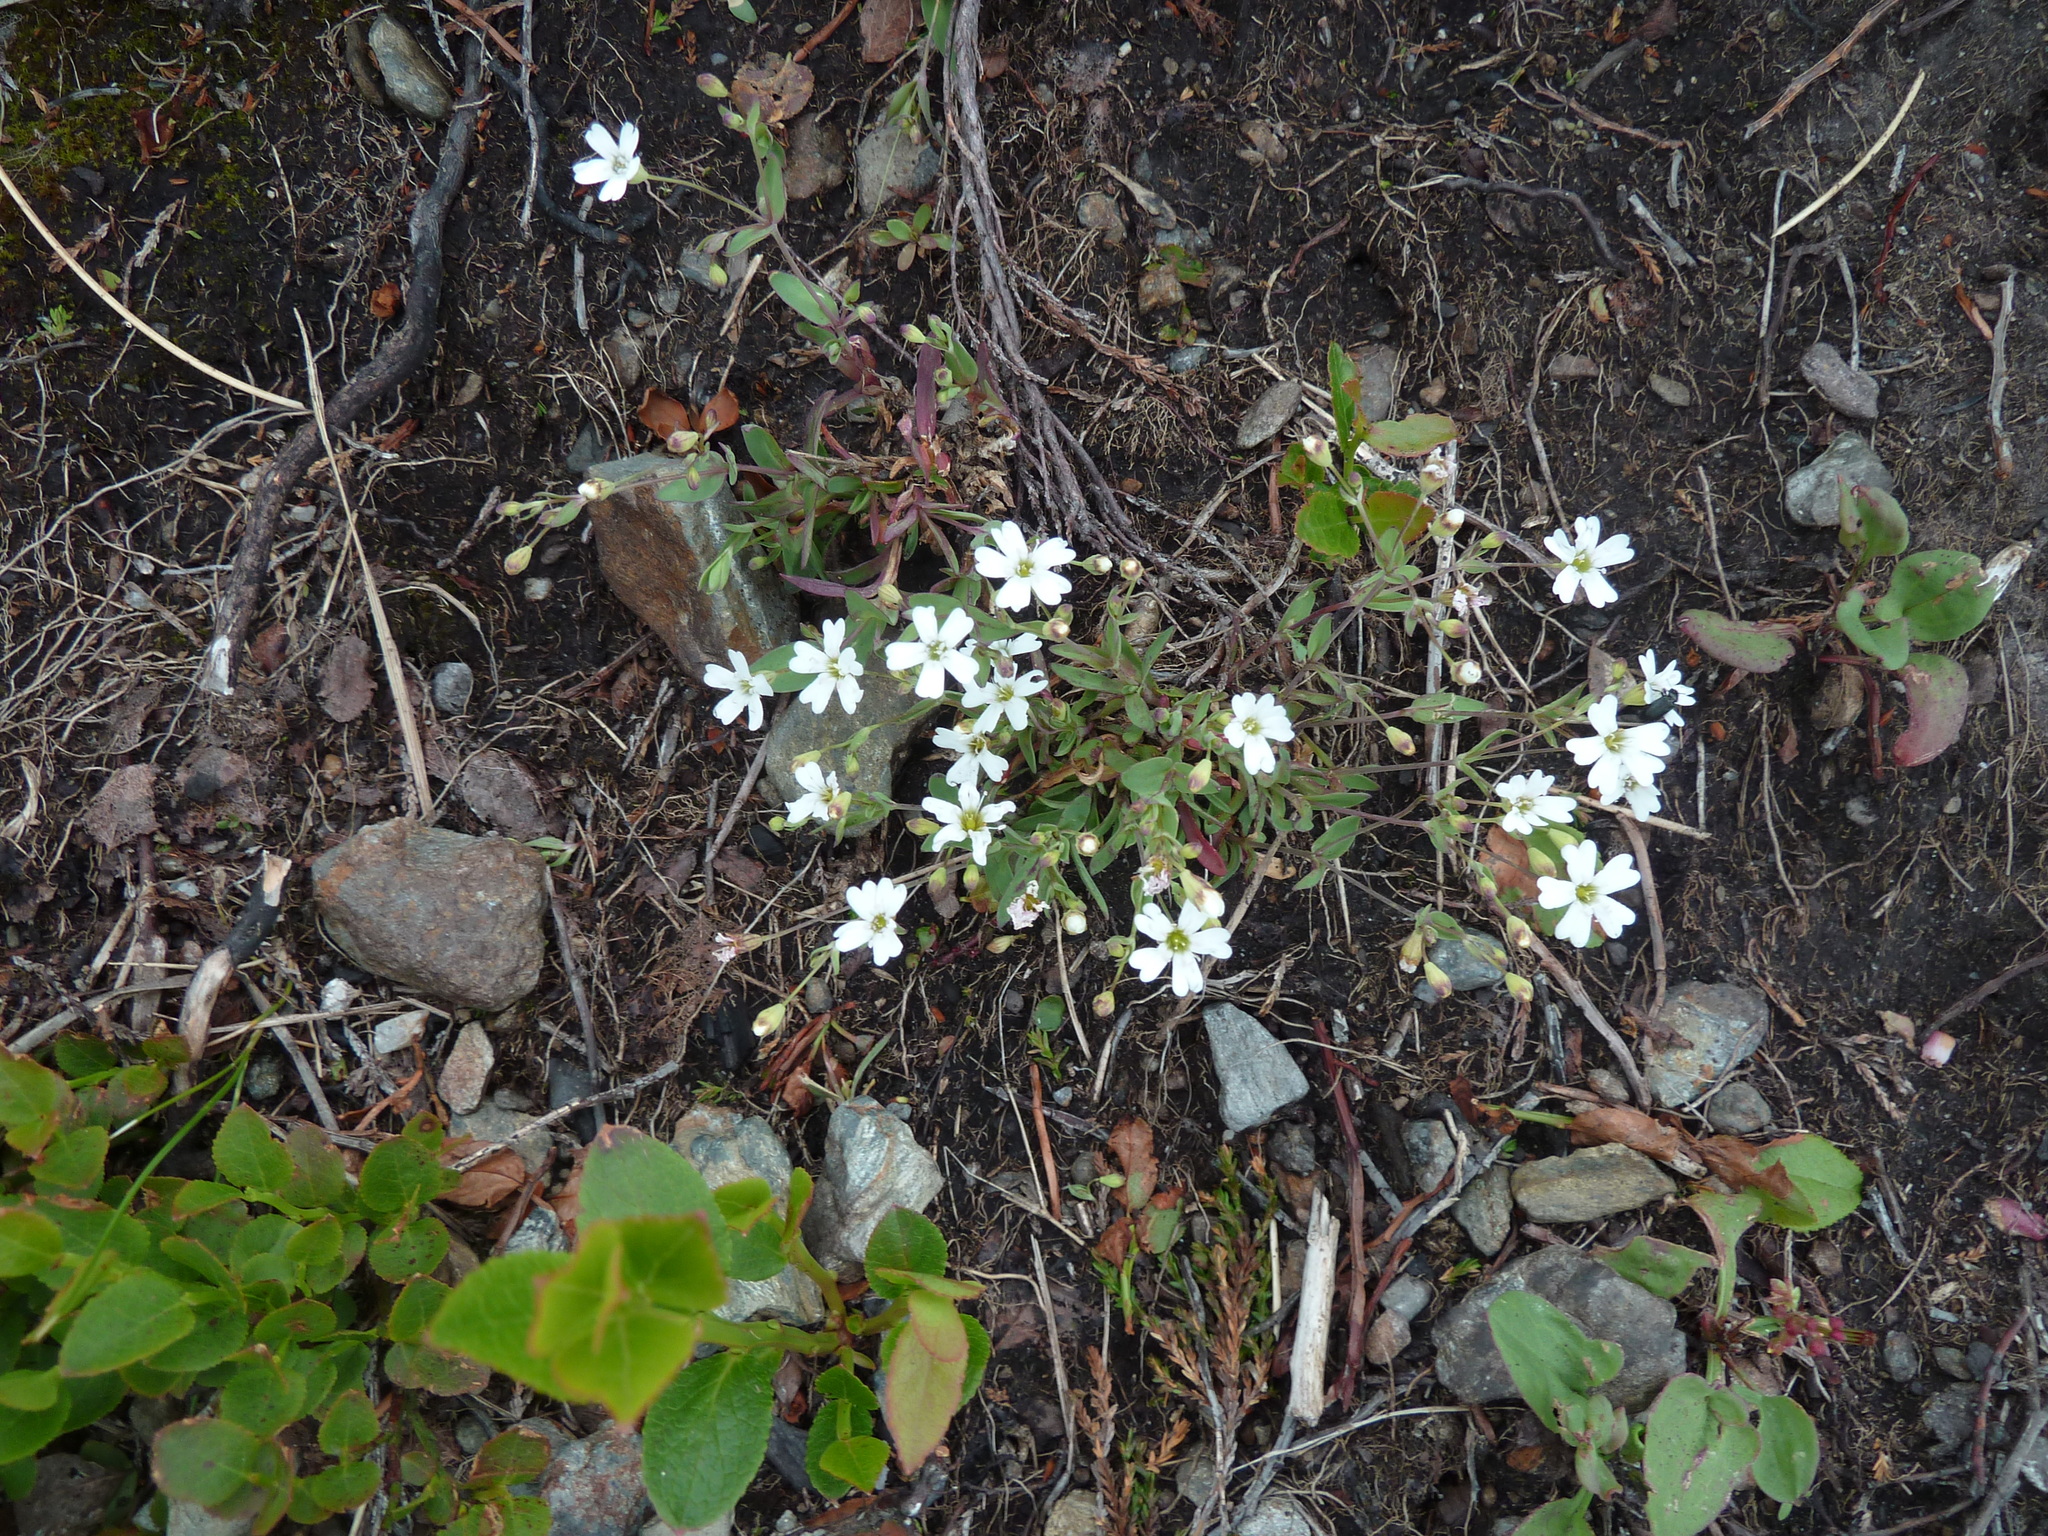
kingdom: Plantae
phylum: Tracheophyta
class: Magnoliopsida
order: Caryophyllales
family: Caryophyllaceae
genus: Atocion
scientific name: Atocion rupestre
